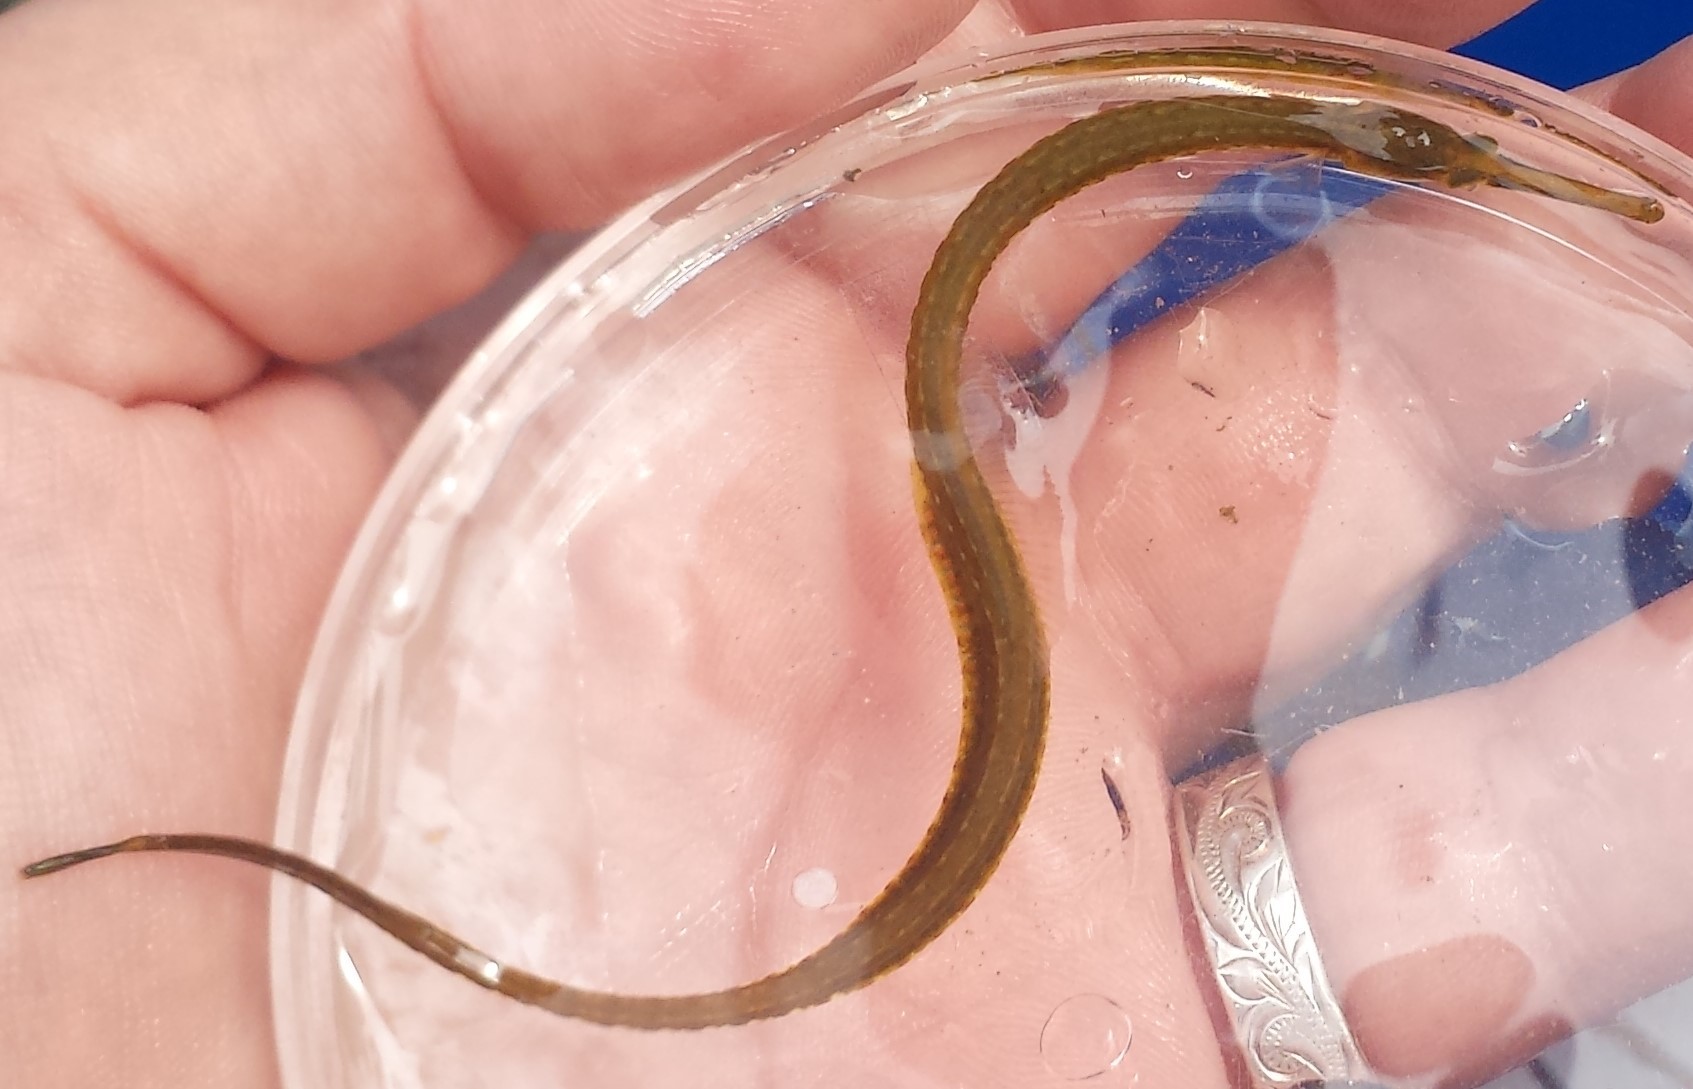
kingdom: Animalia
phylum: Chordata
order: Syngnathiformes
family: Syngnathidae
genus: Syngnathus
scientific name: Syngnathus fuscus
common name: Northern pipefish
